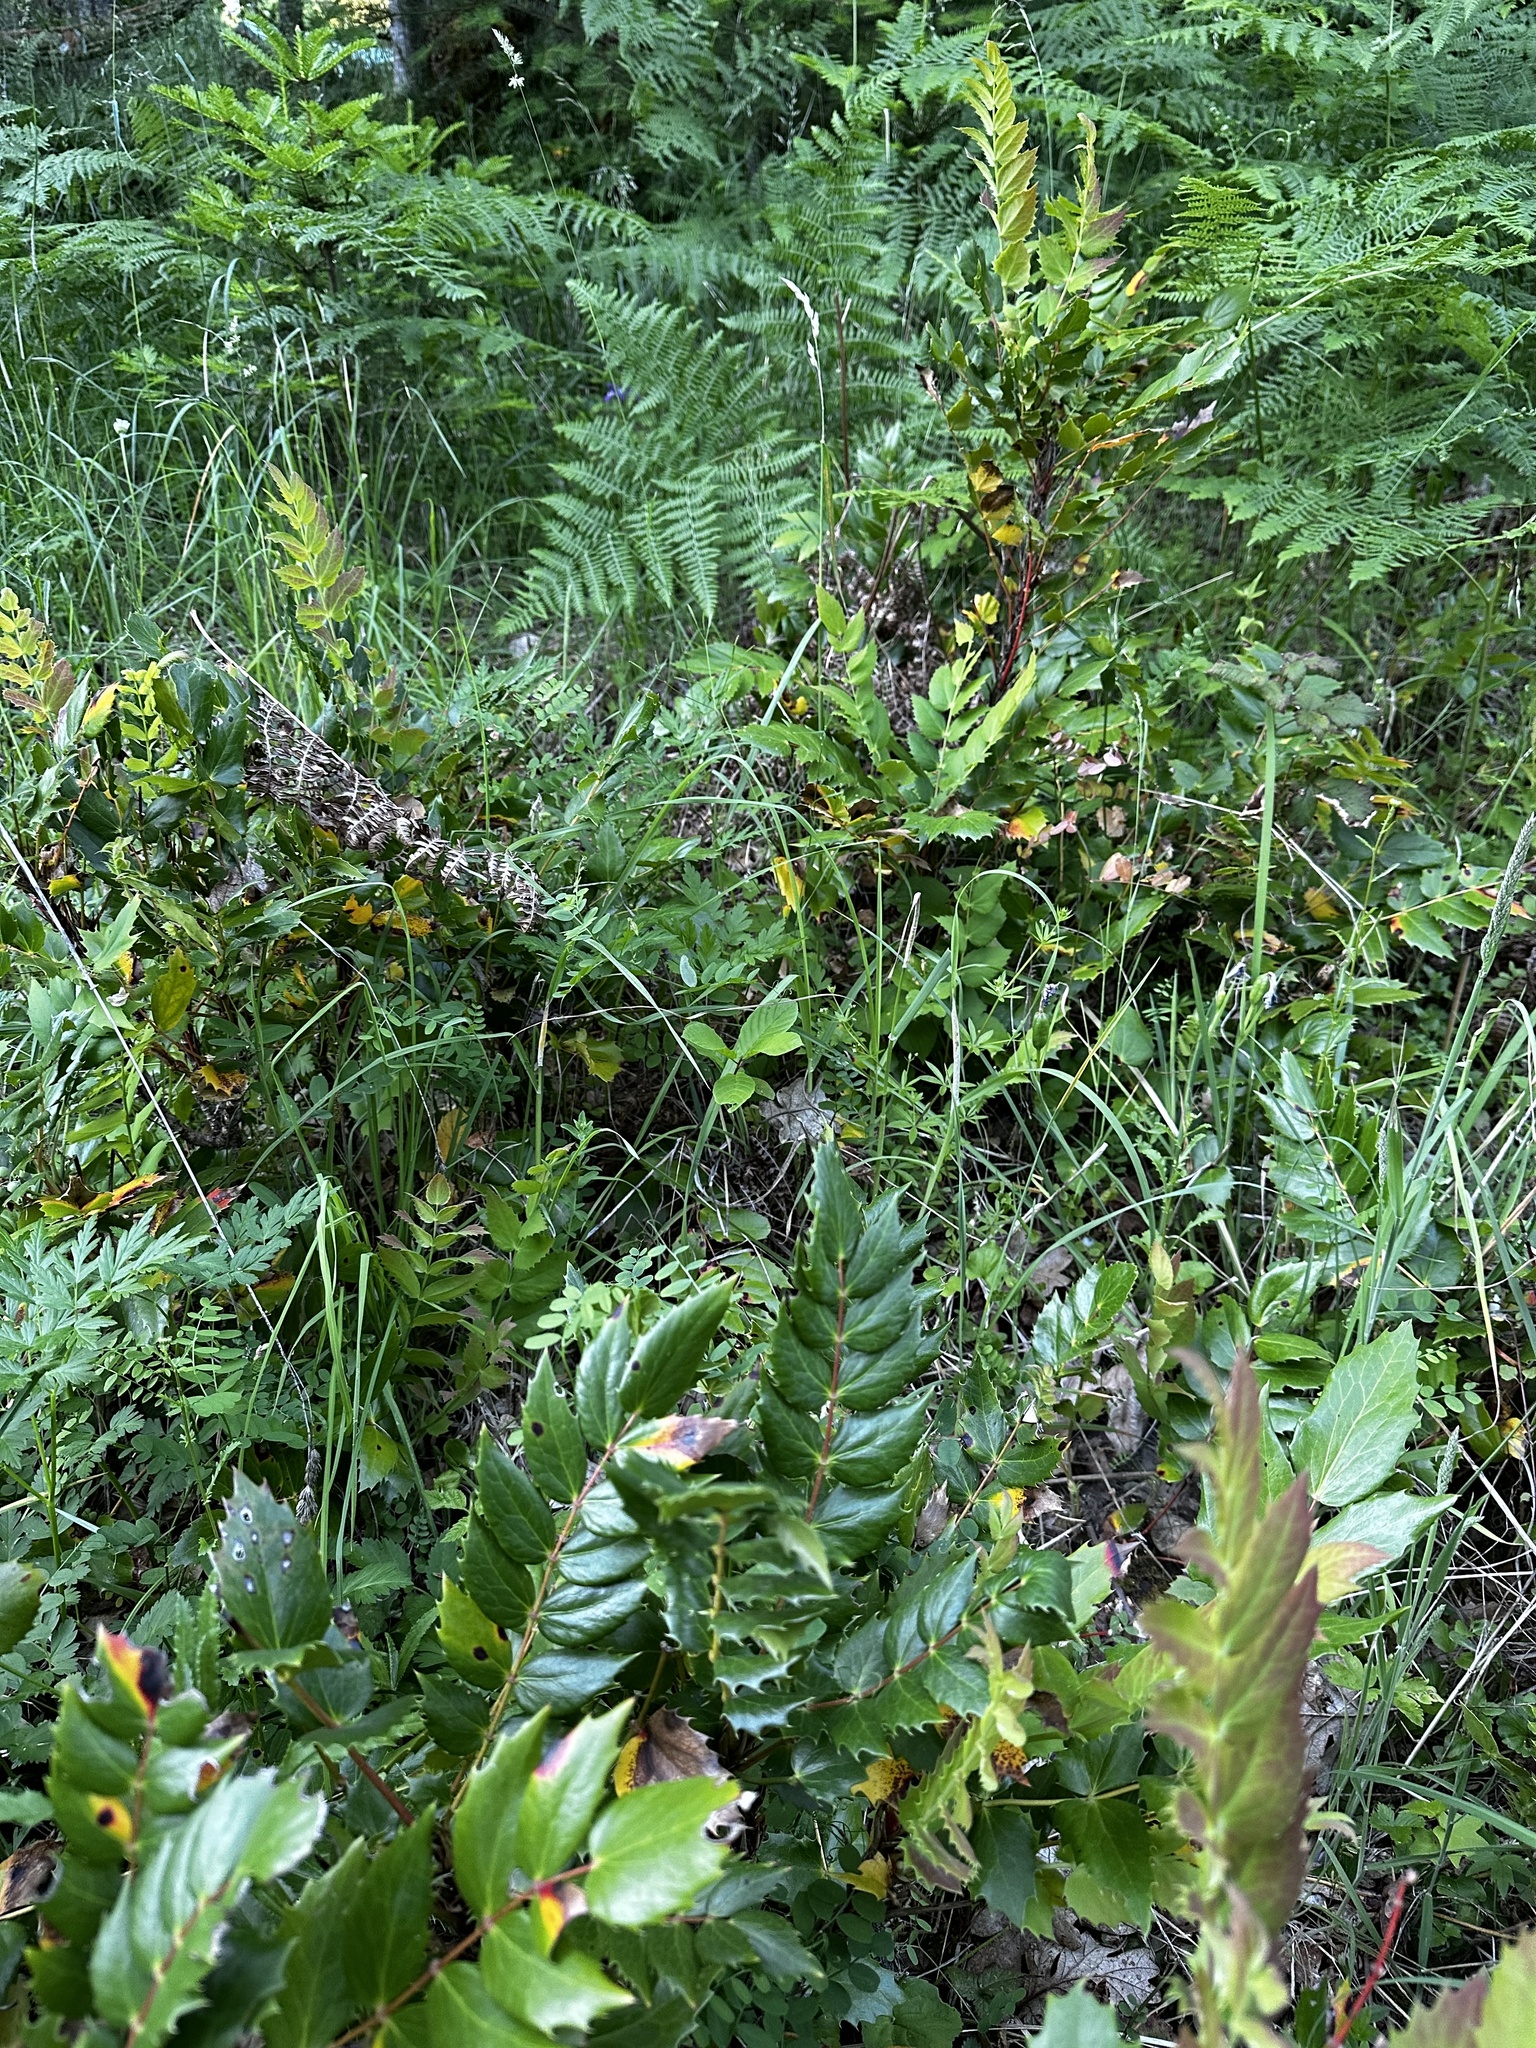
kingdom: Plantae
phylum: Tracheophyta
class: Magnoliopsida
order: Ranunculales
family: Berberidaceae
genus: Mahonia
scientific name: Mahonia nervosa
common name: Cascade oregon-grape
